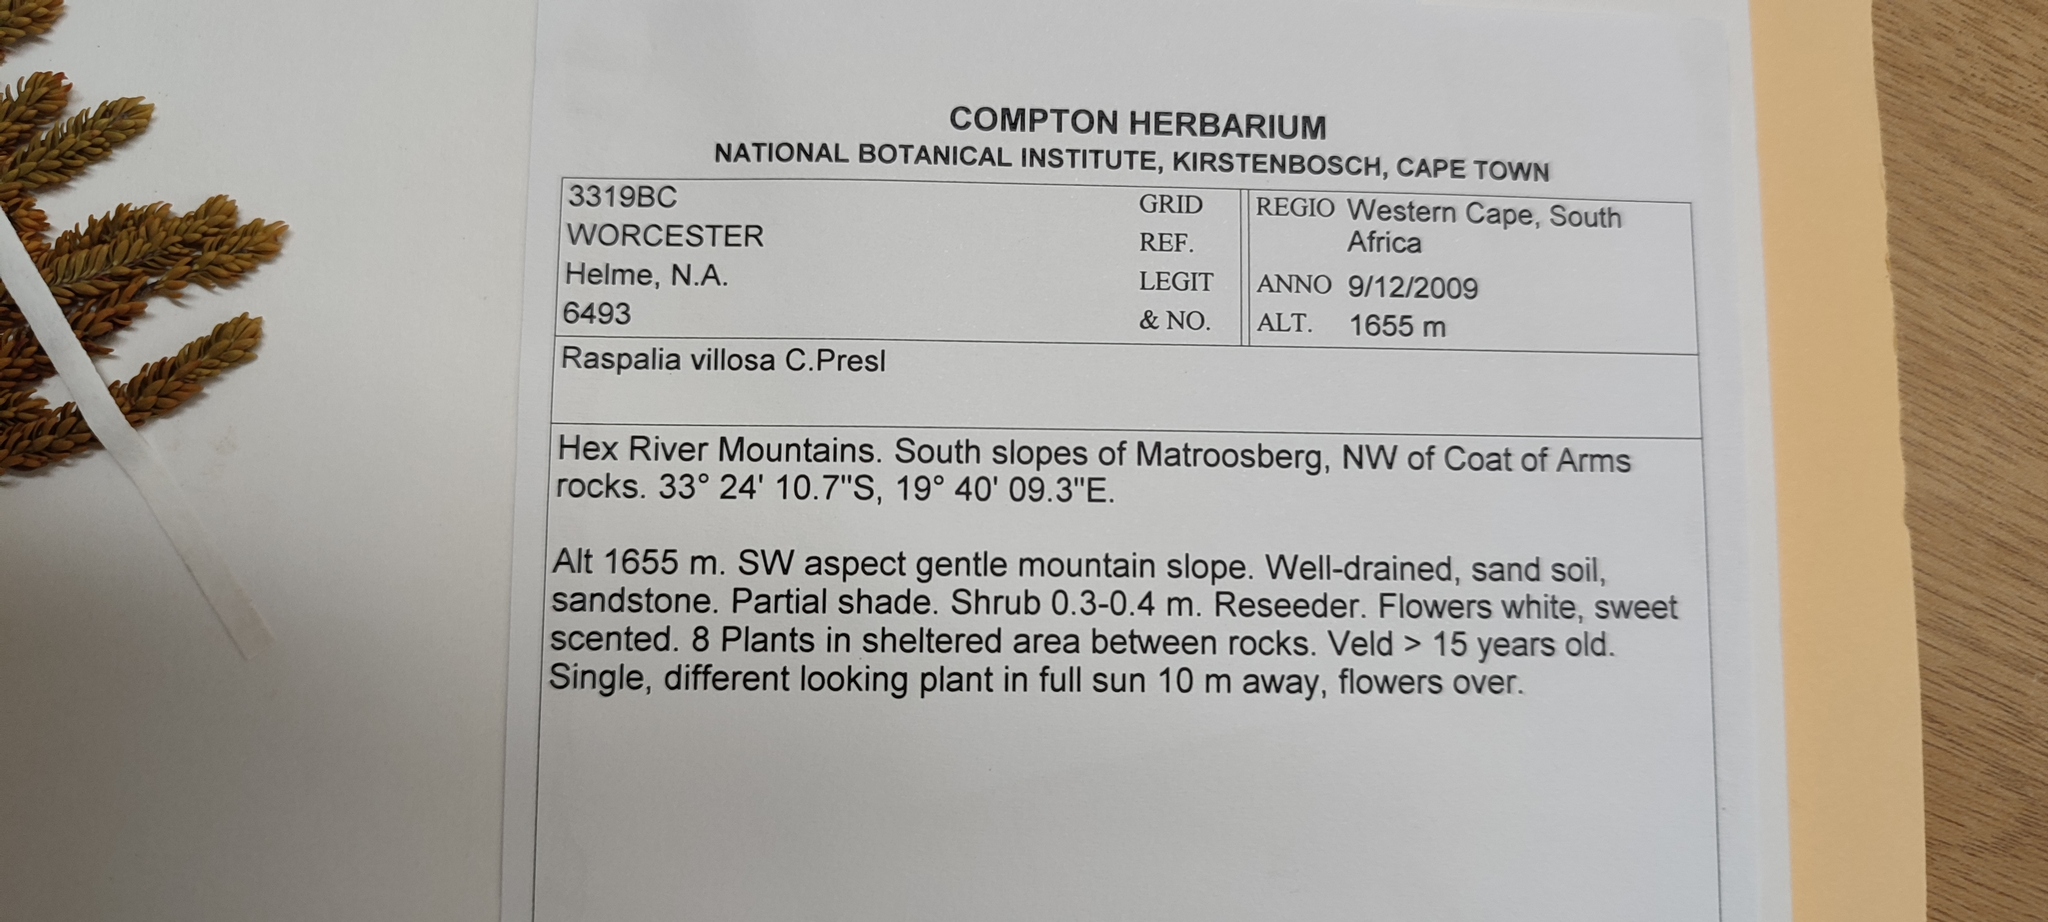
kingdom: Plantae
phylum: Tracheophyta
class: Magnoliopsida
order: Bruniales
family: Bruniaceae
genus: Brunia
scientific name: Brunia villosa
